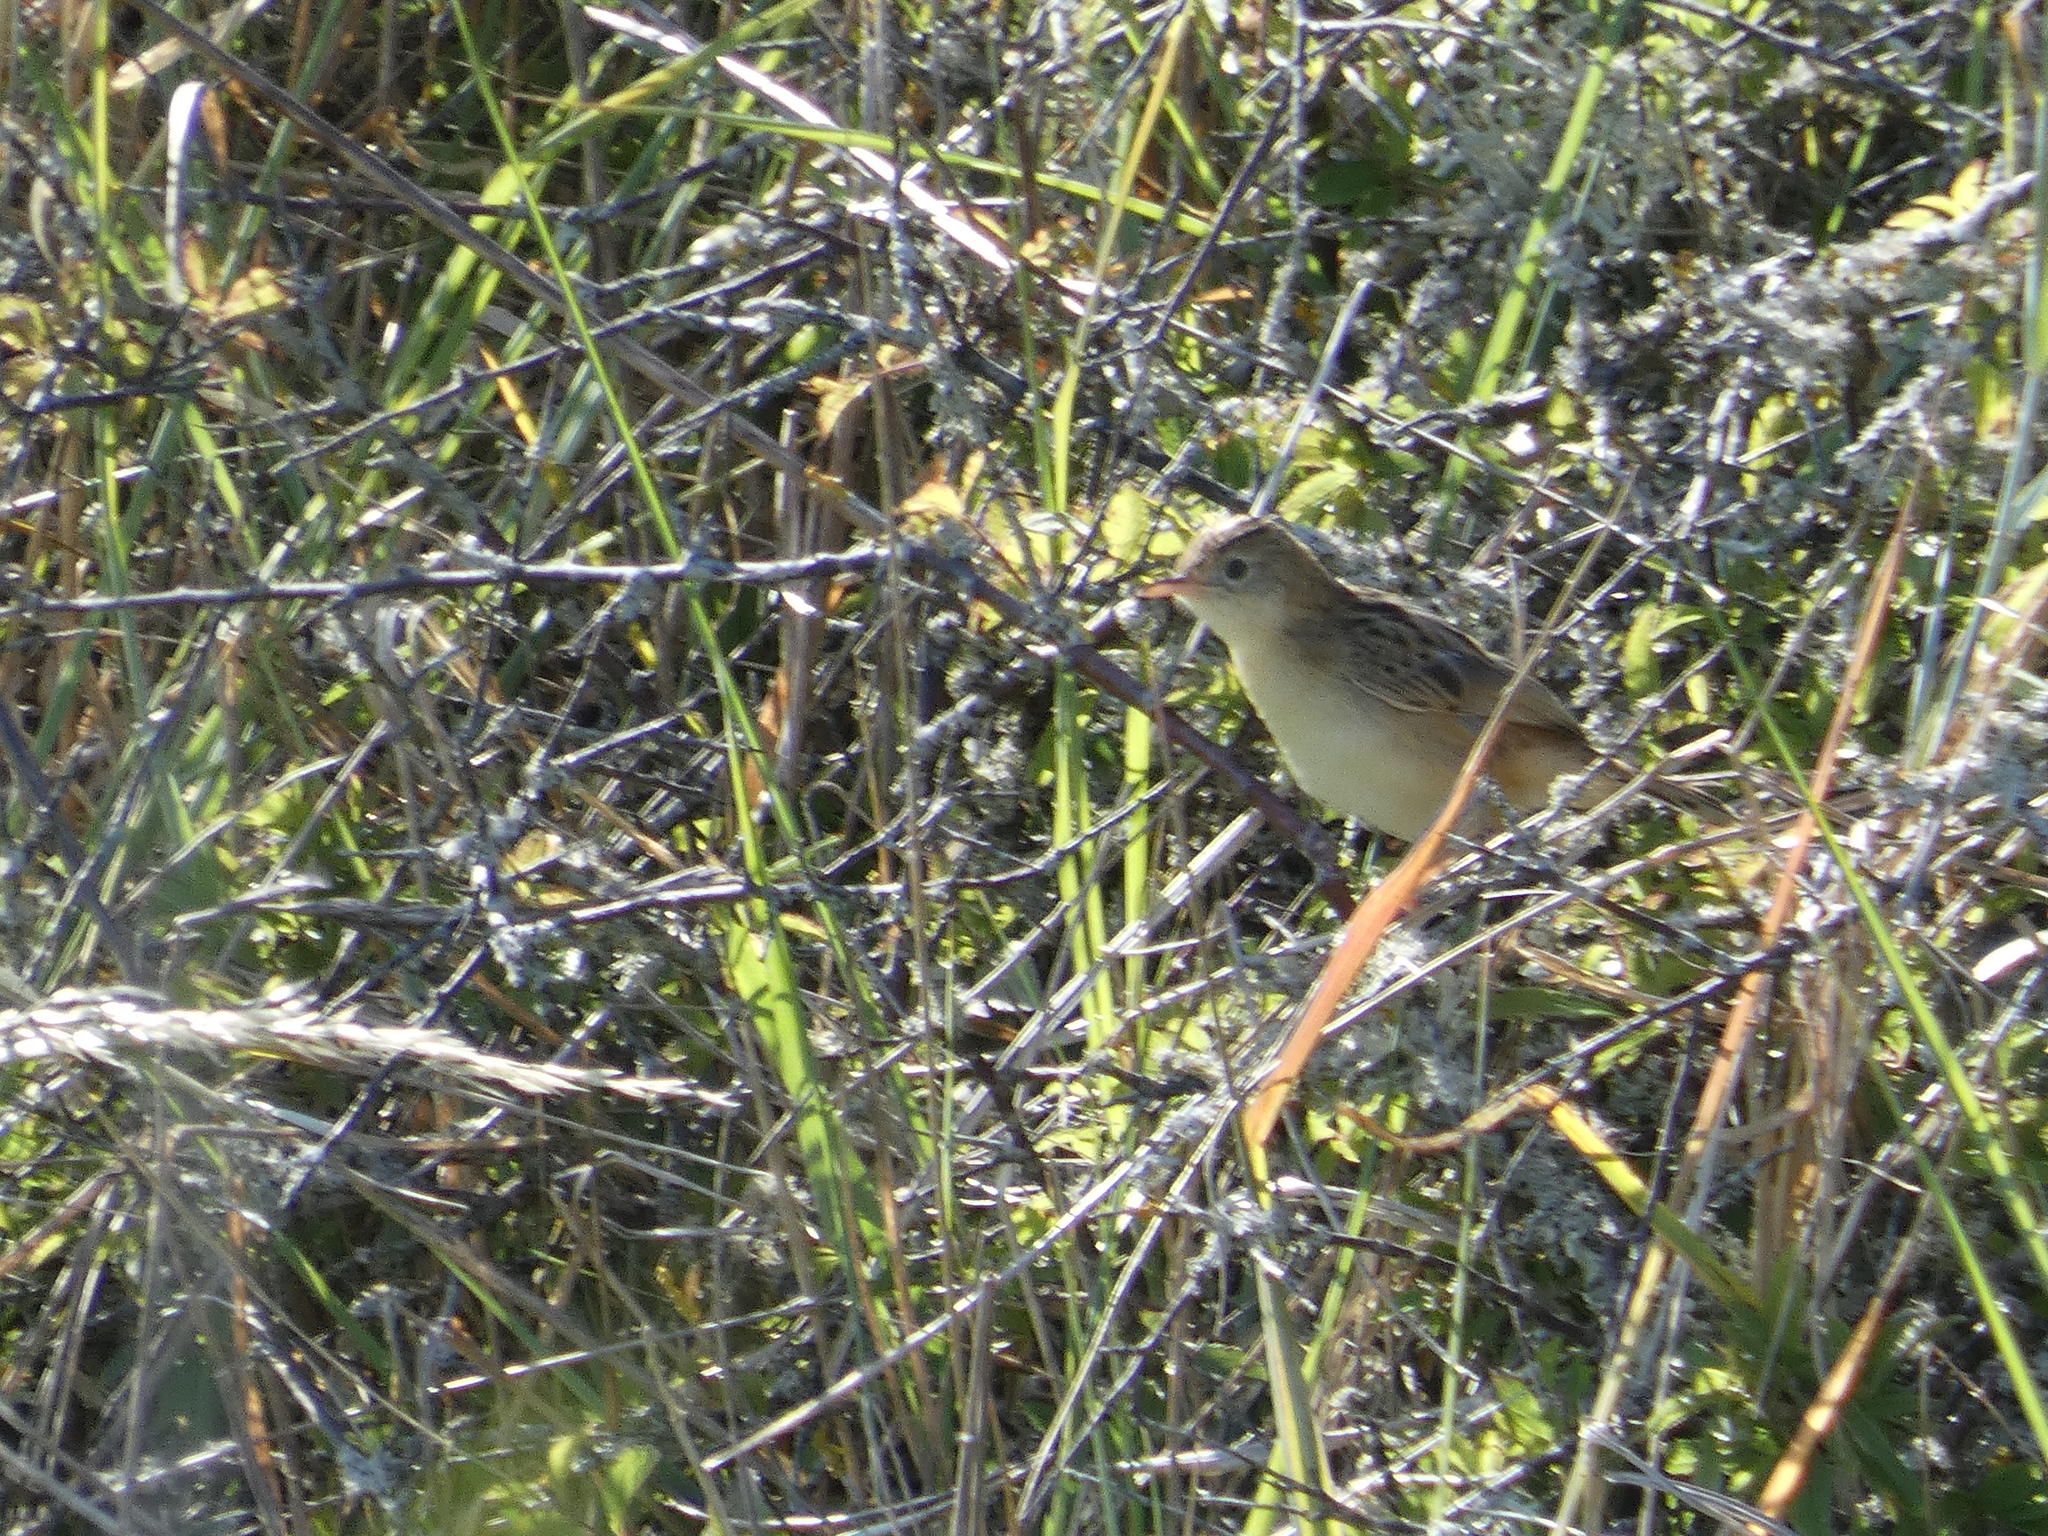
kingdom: Animalia
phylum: Chordata
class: Aves
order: Passeriformes
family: Cisticolidae
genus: Cisticola
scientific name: Cisticola juncidis
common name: Zitting cisticola
